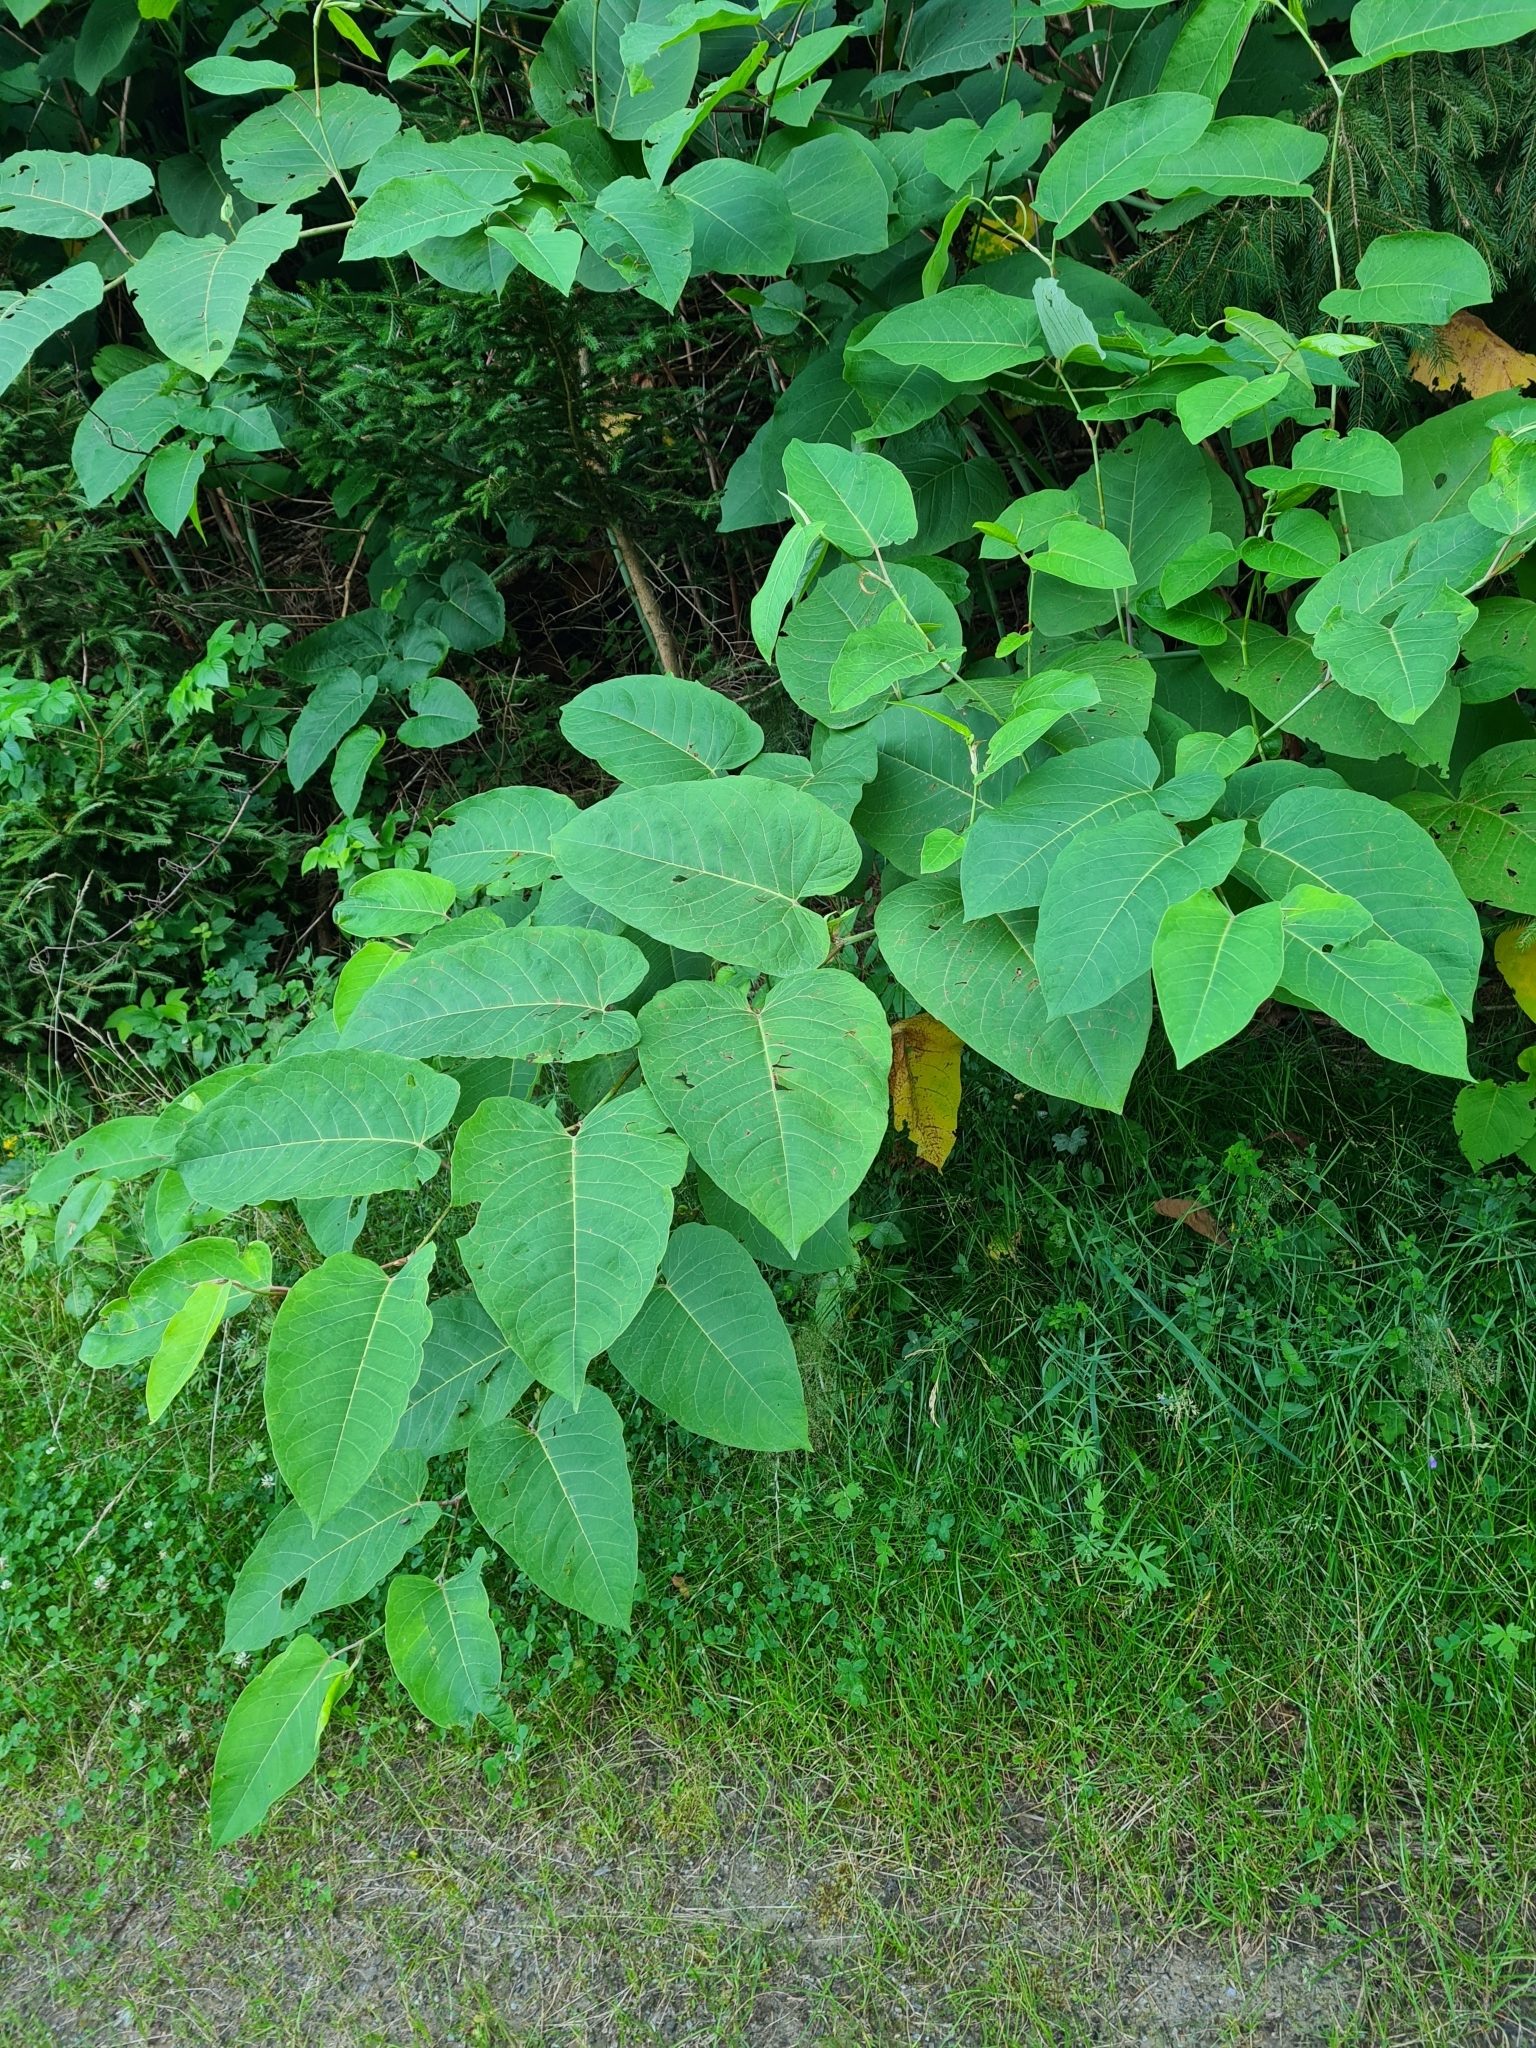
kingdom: Plantae
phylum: Tracheophyta
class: Magnoliopsida
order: Caryophyllales
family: Polygonaceae
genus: Reynoutria
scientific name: Reynoutria sachalinensis
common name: Giant knotweed
